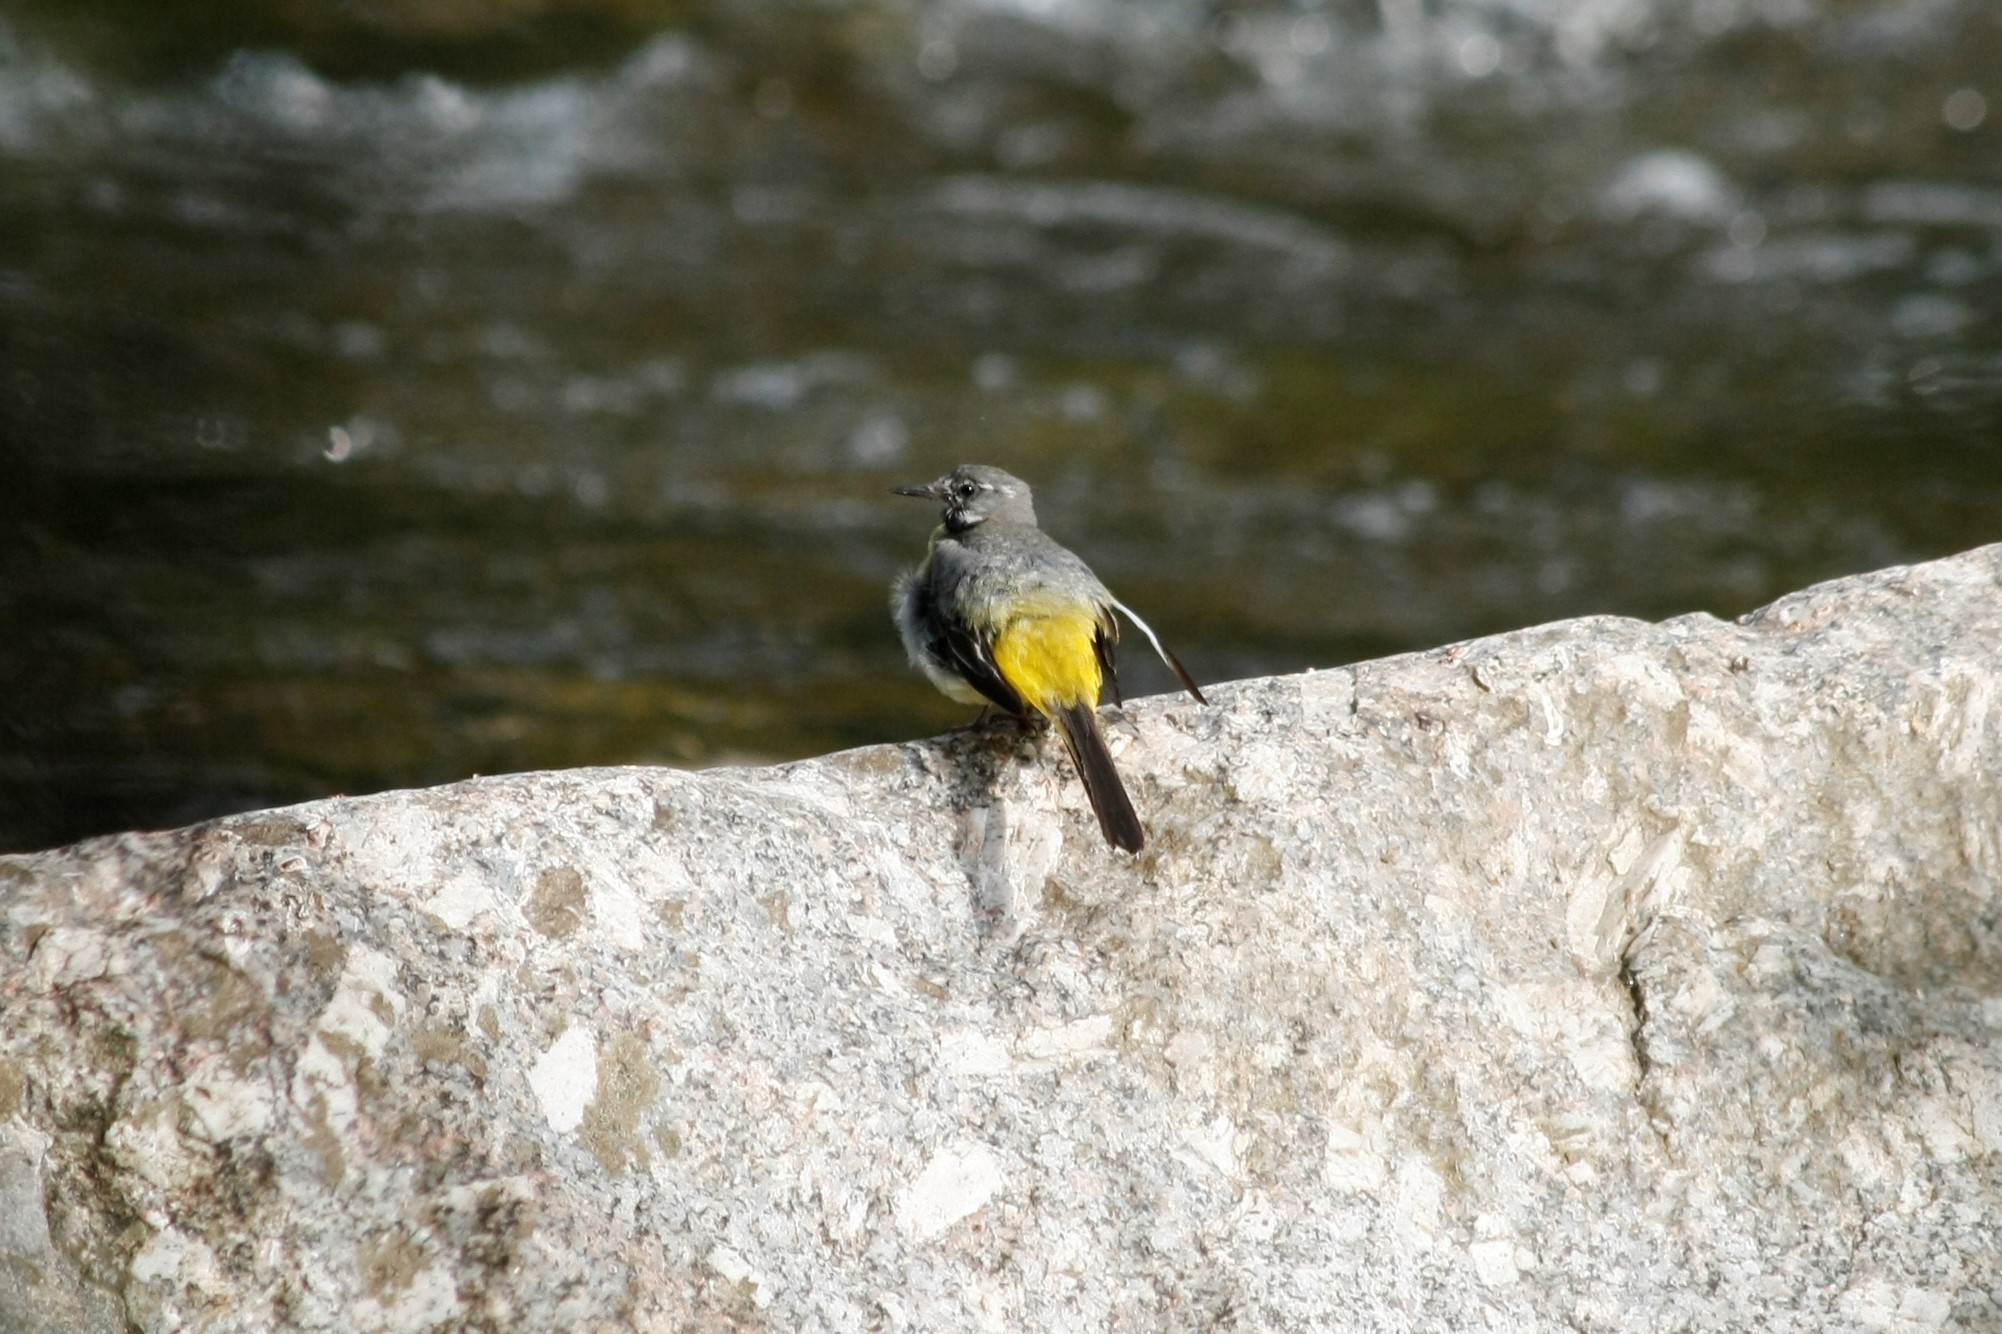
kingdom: Animalia
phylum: Chordata
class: Aves
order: Passeriformes
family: Motacillidae
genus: Motacilla
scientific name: Motacilla cinerea
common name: Grey wagtail
